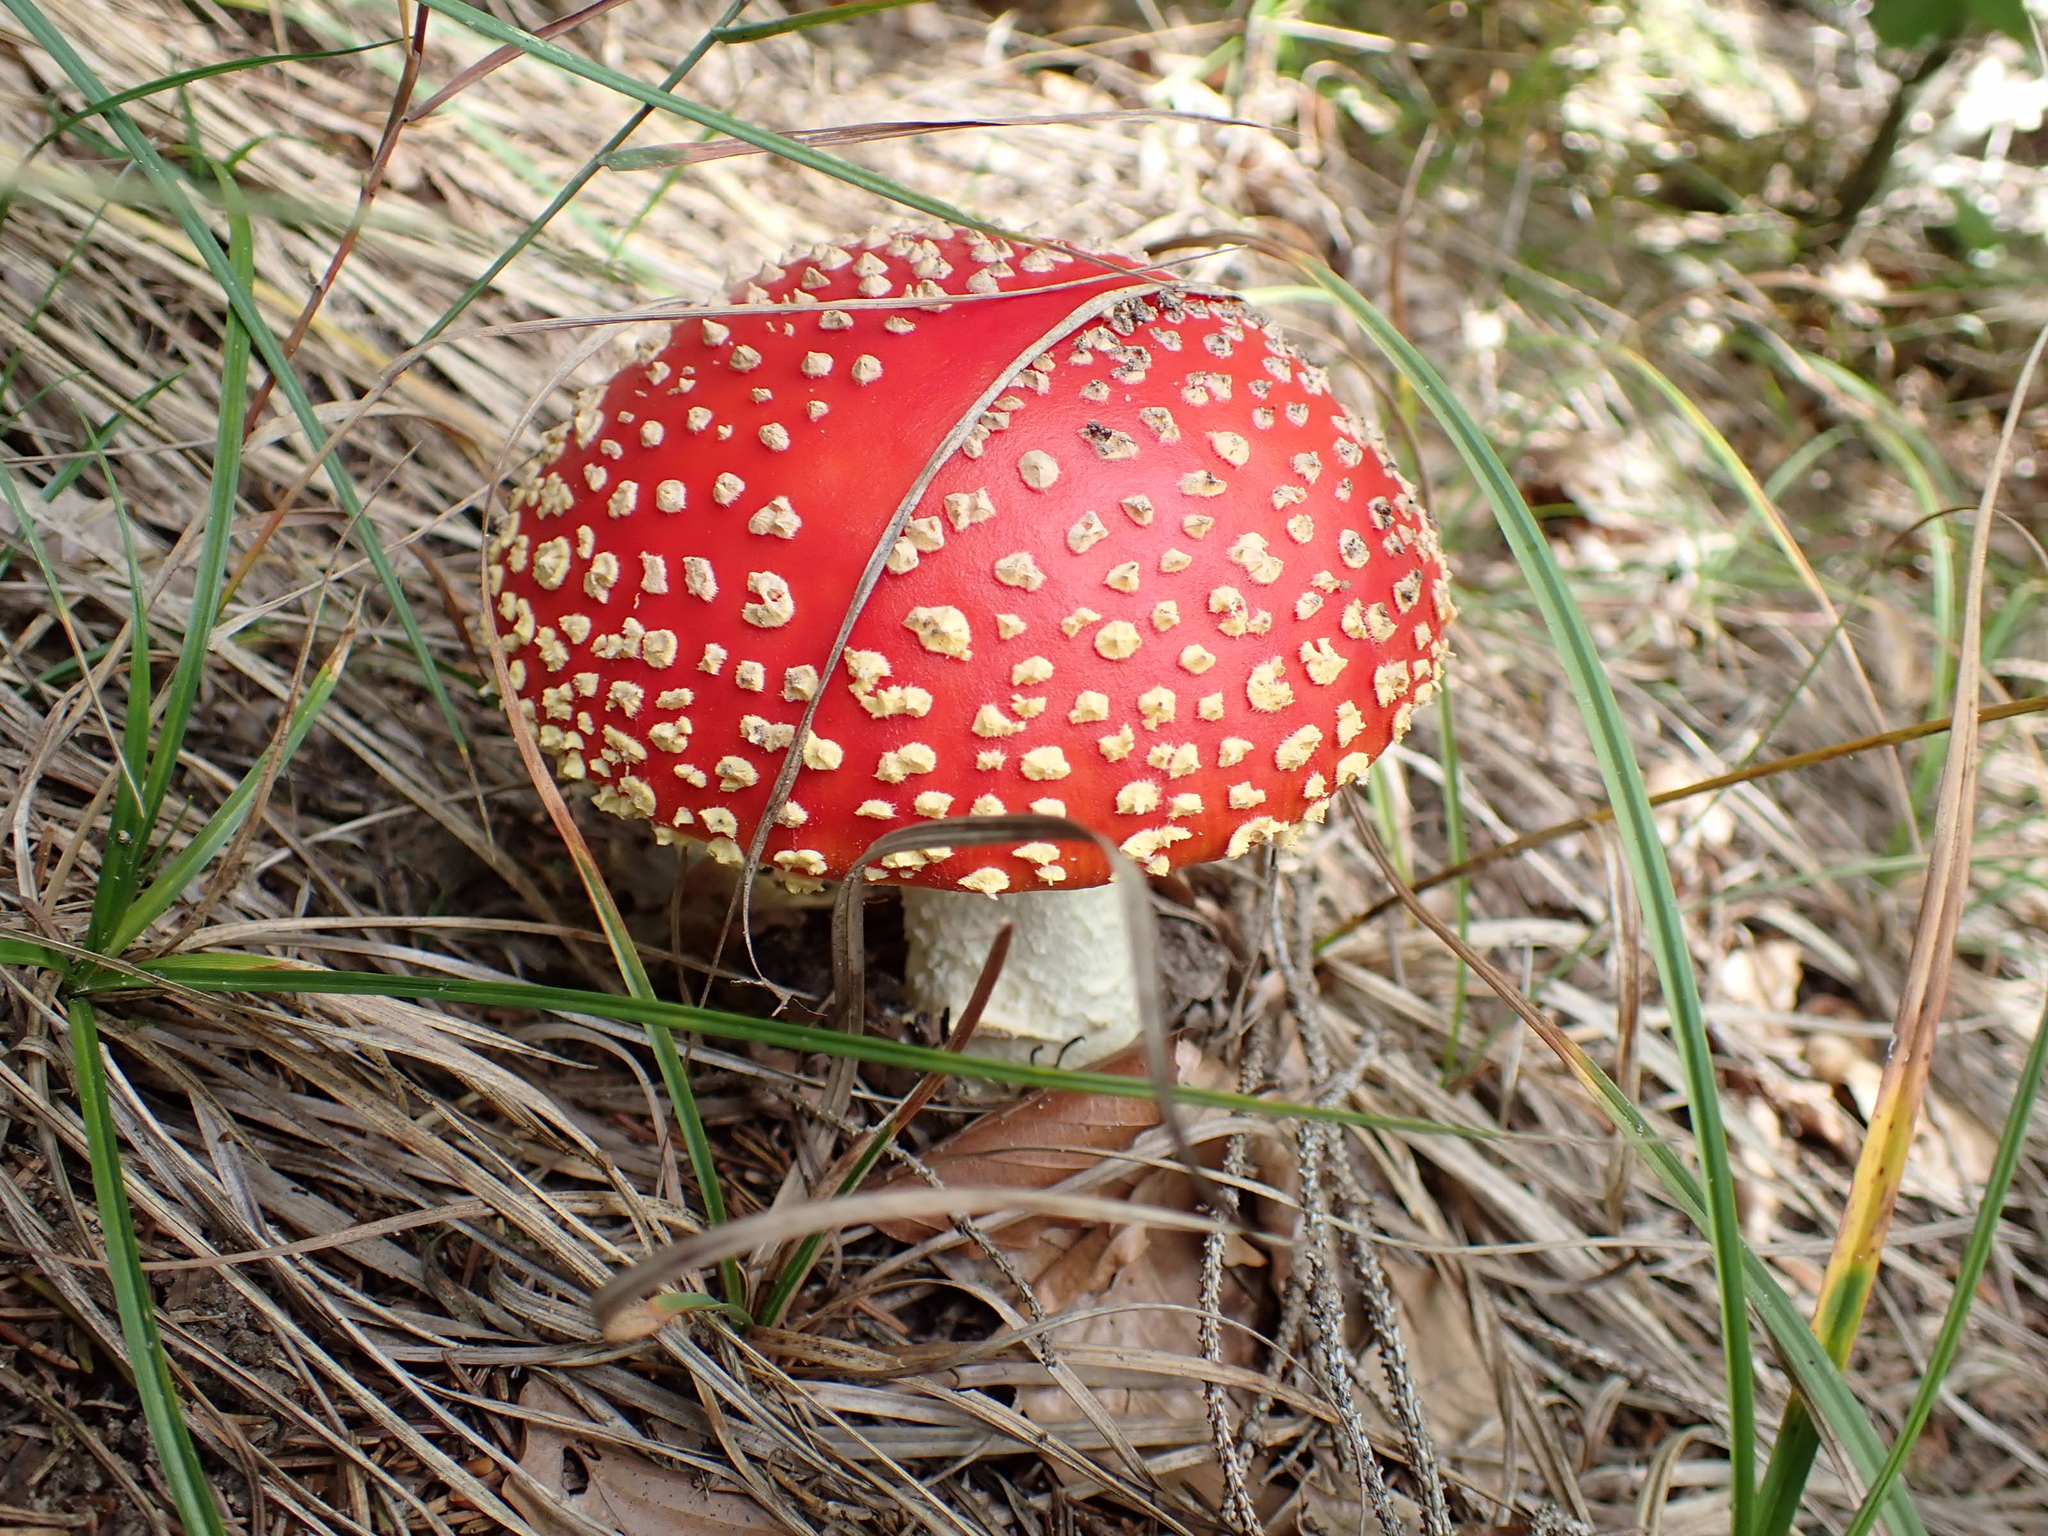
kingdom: Fungi
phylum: Basidiomycota
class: Agaricomycetes
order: Agaricales
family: Amanitaceae
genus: Amanita
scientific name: Amanita muscaria
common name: Fly agaric
